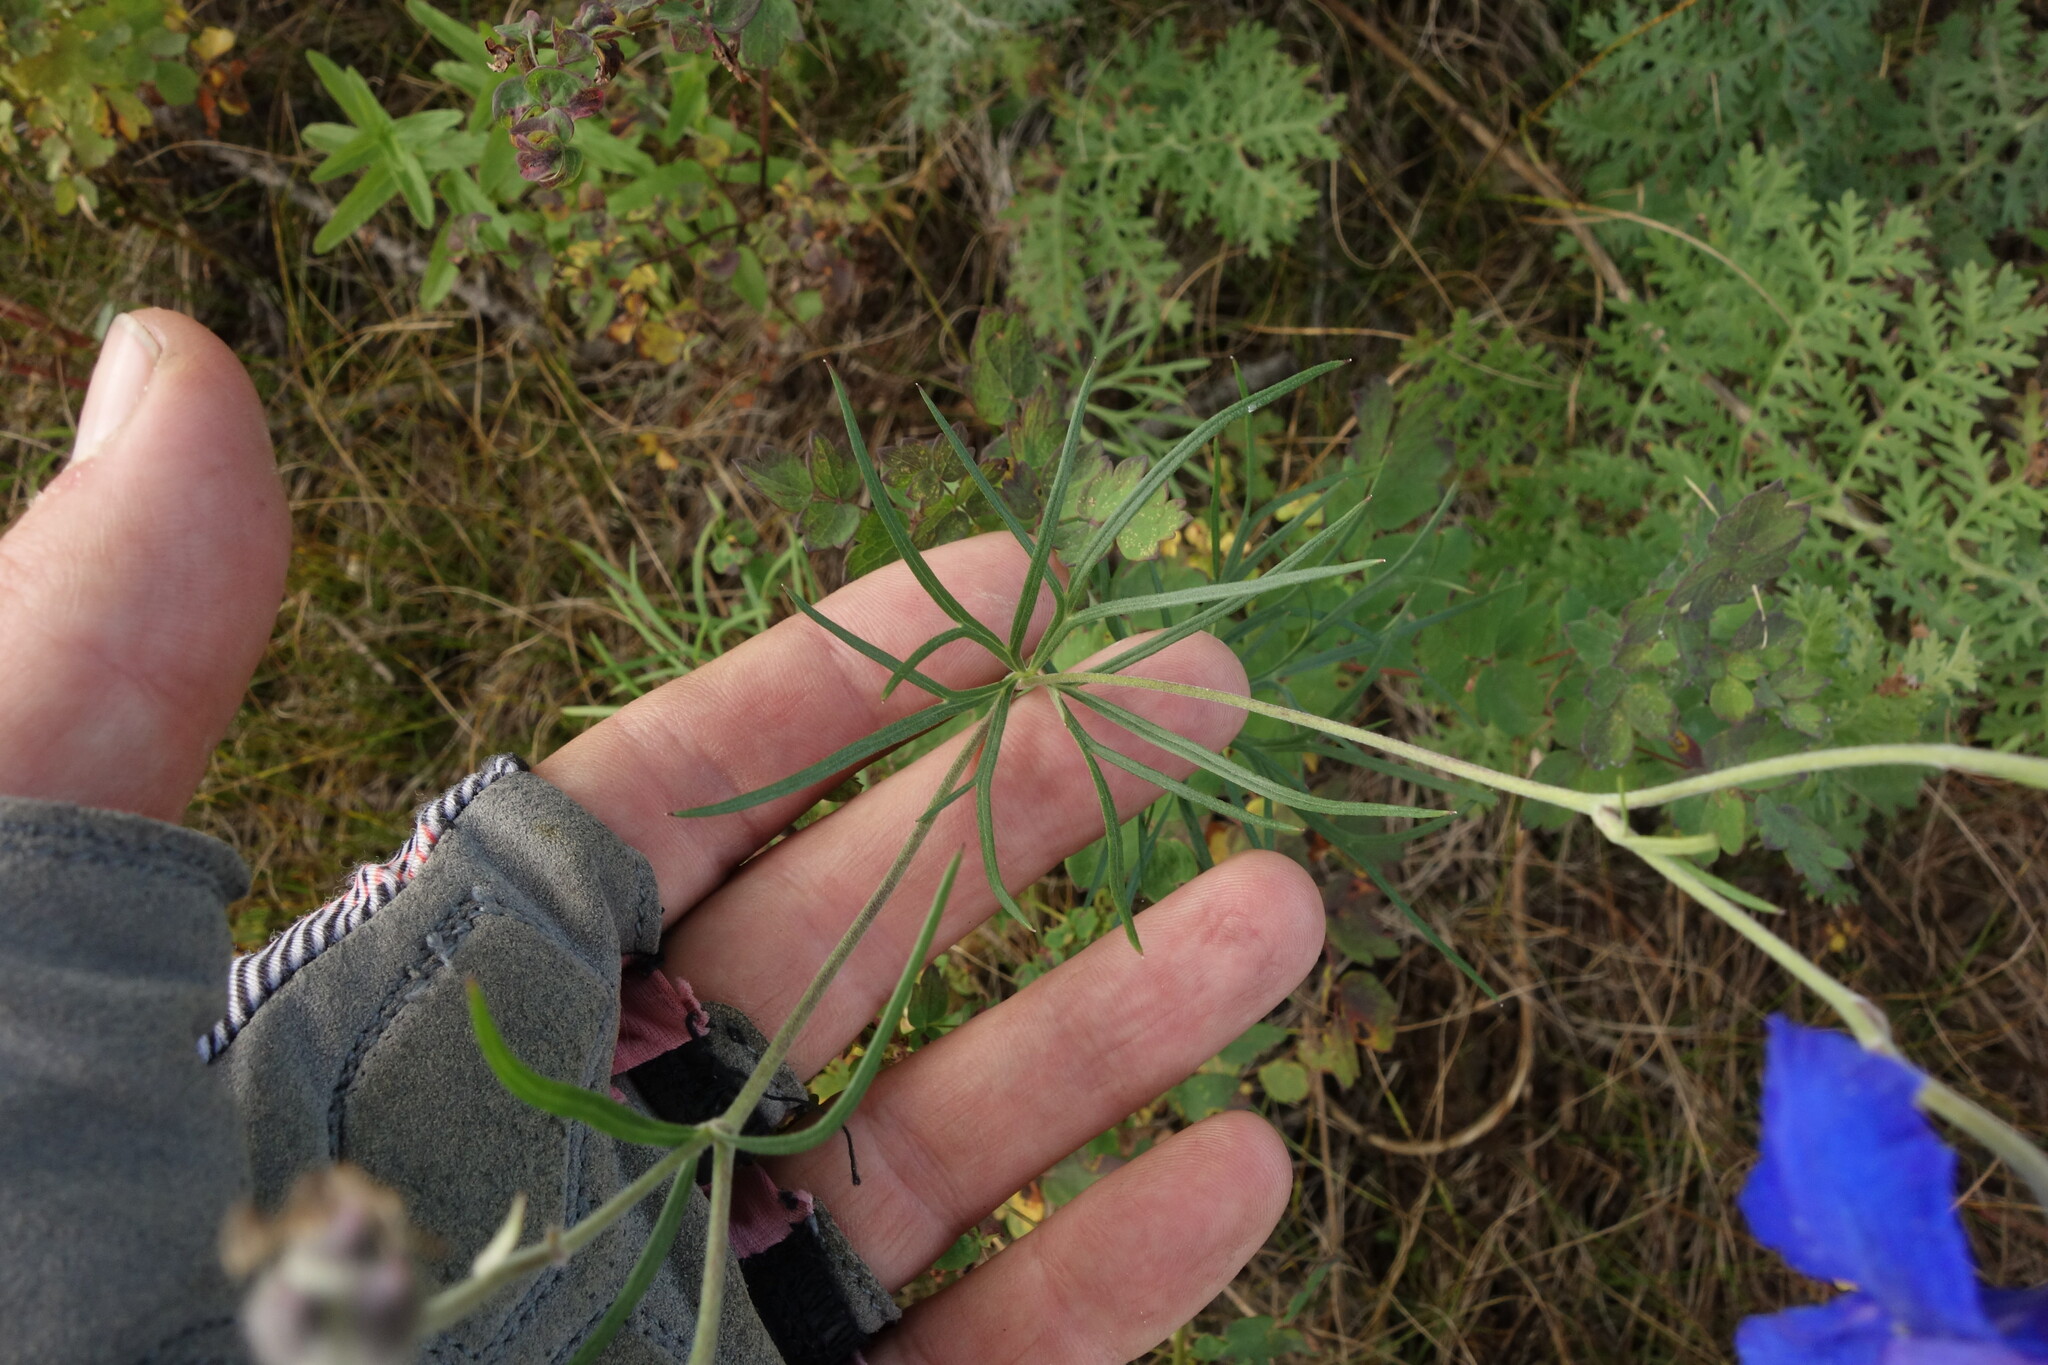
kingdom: Plantae
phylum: Tracheophyta
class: Magnoliopsida
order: Ranunculales
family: Ranunculaceae
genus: Delphinium
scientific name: Delphinium grandiflorum
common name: Siberian larkspur
